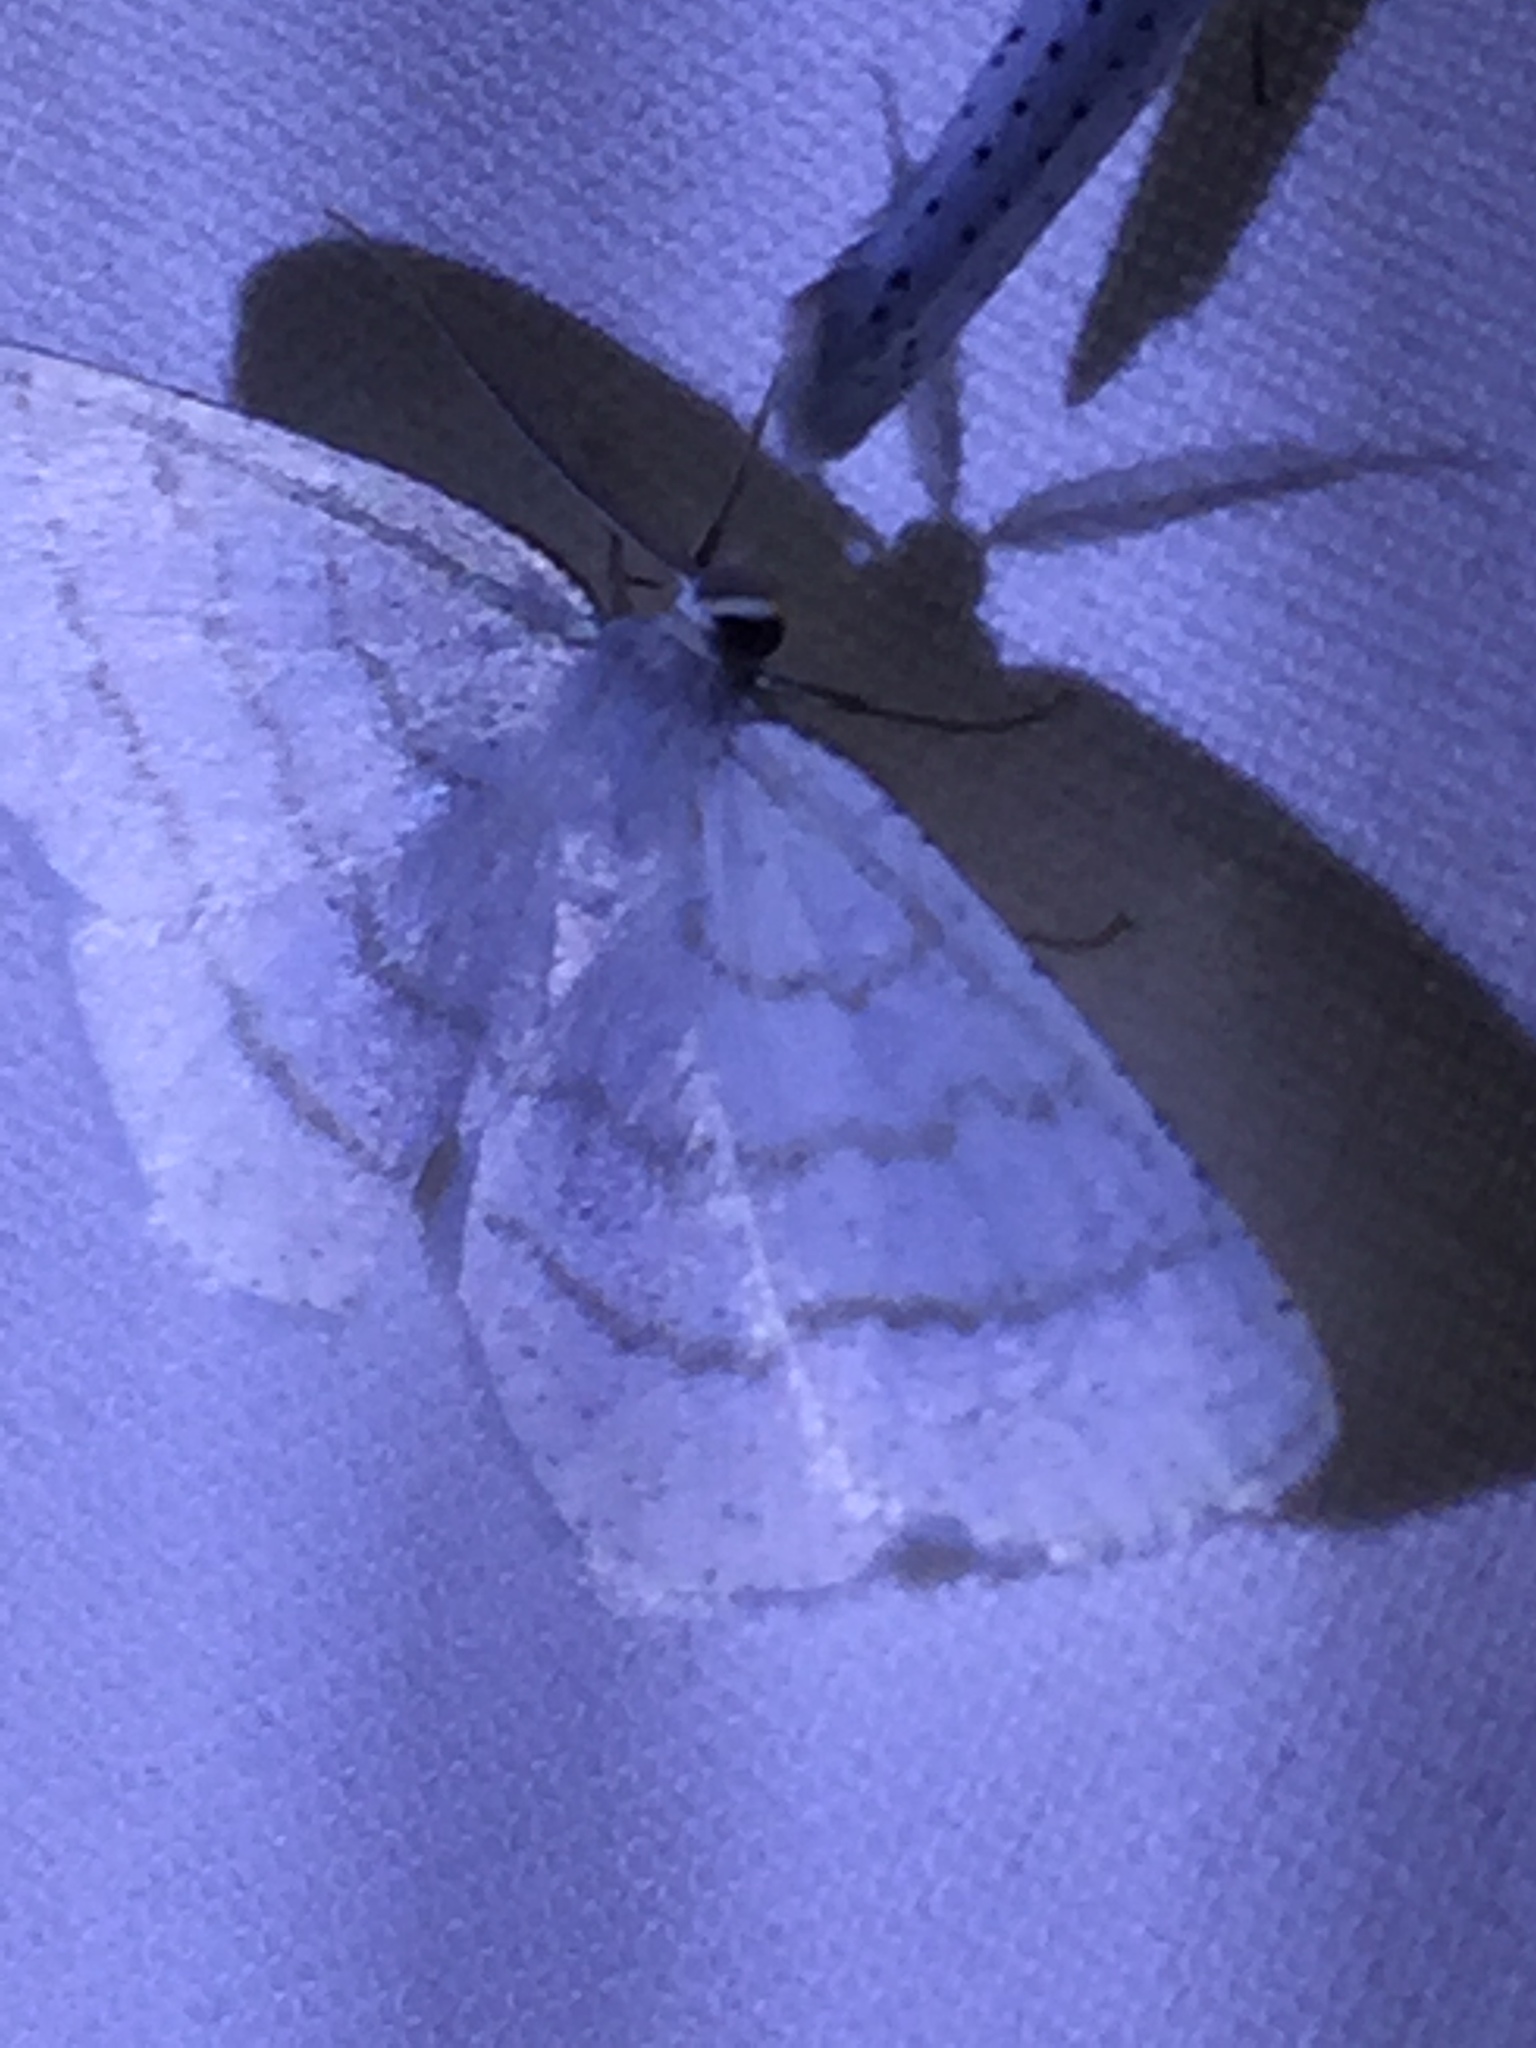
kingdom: Animalia
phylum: Arthropoda
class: Insecta
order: Lepidoptera
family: Geometridae
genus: Cabera
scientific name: Cabera pusaria
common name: Common white wave
